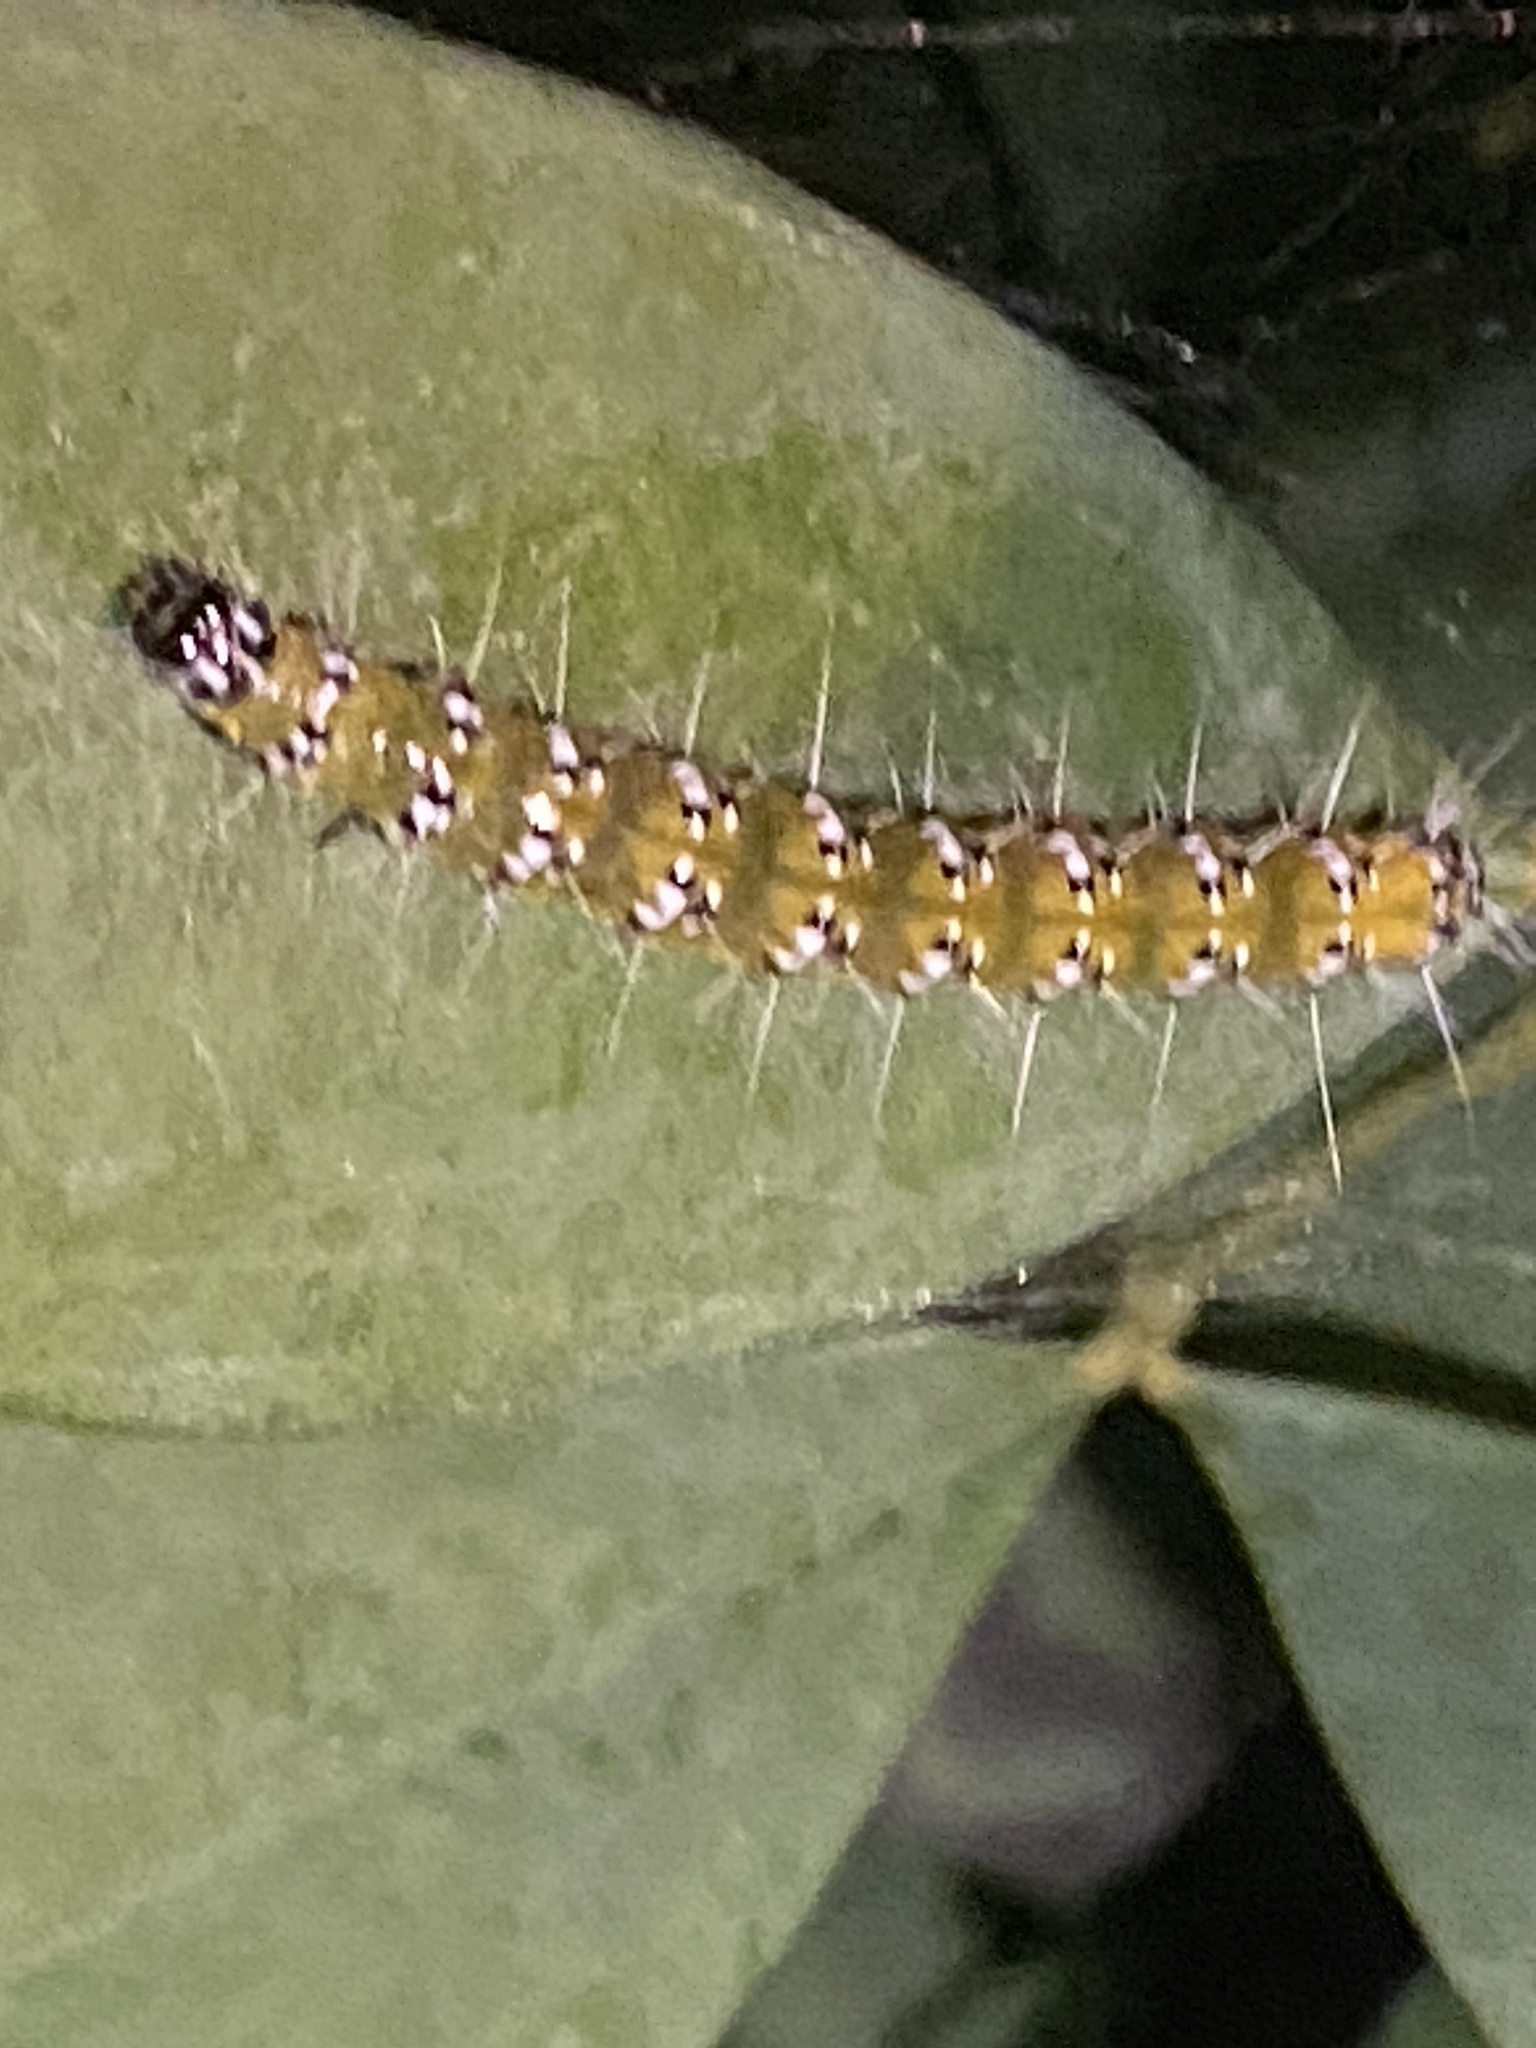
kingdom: Animalia
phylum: Arthropoda
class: Insecta
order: Lepidoptera
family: Crambidae
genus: Uresiphita
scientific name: Uresiphita reversalis
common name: Genista broom moth
